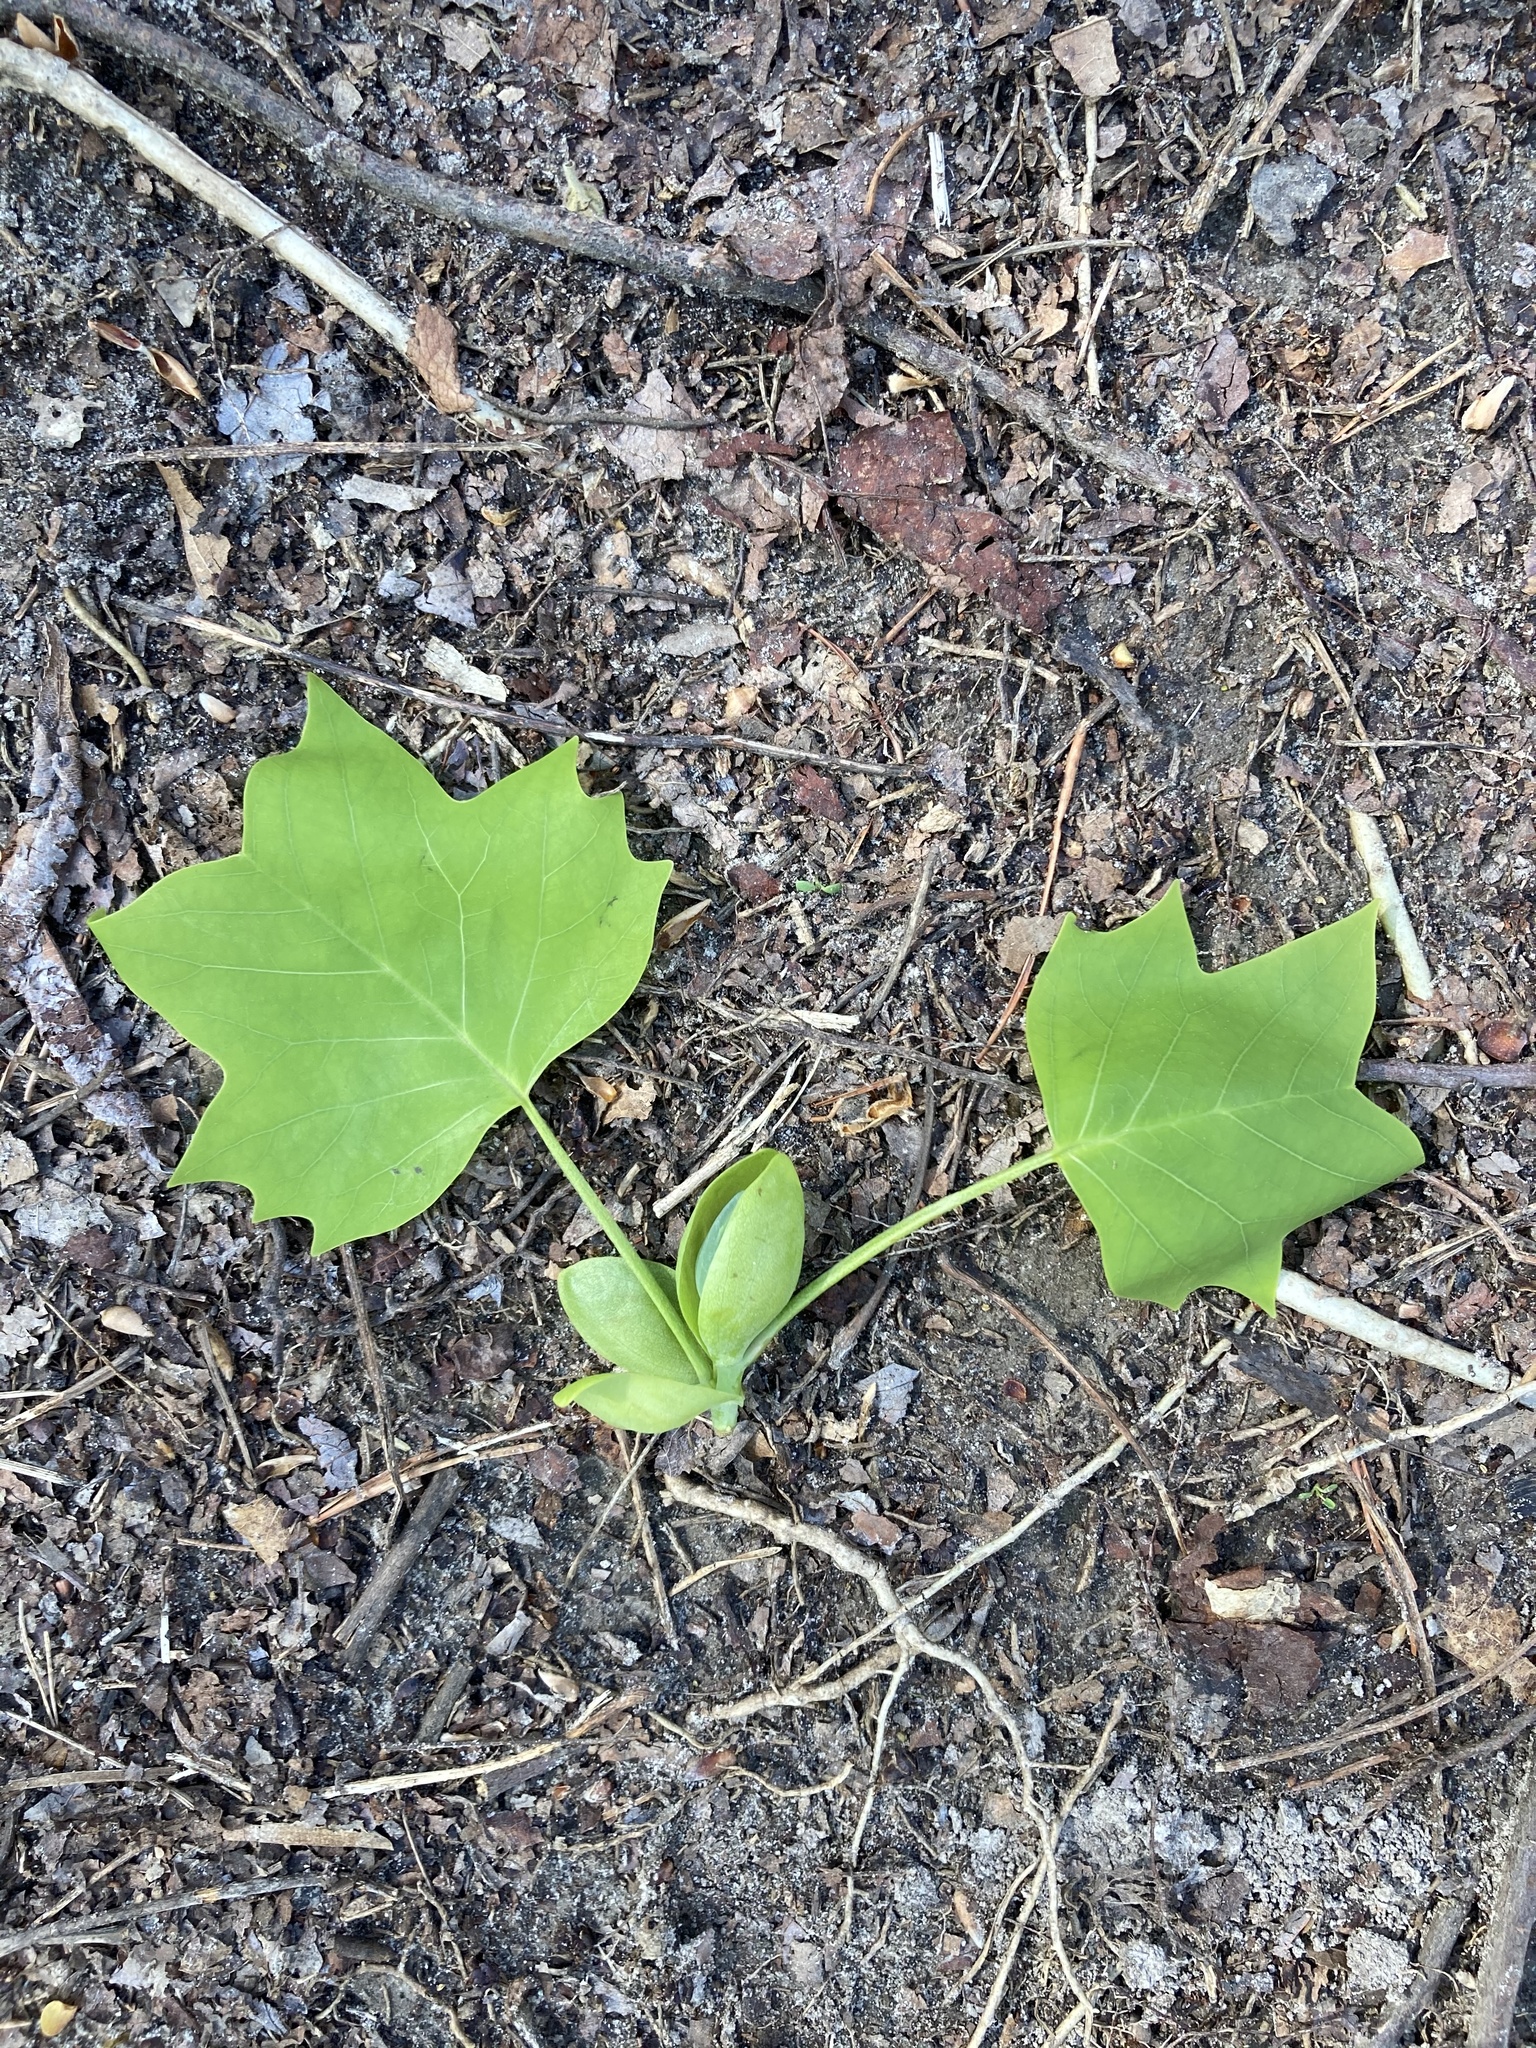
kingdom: Plantae
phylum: Tracheophyta
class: Magnoliopsida
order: Magnoliales
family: Magnoliaceae
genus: Liriodendron
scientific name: Liriodendron tulipifera
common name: Tulip tree
